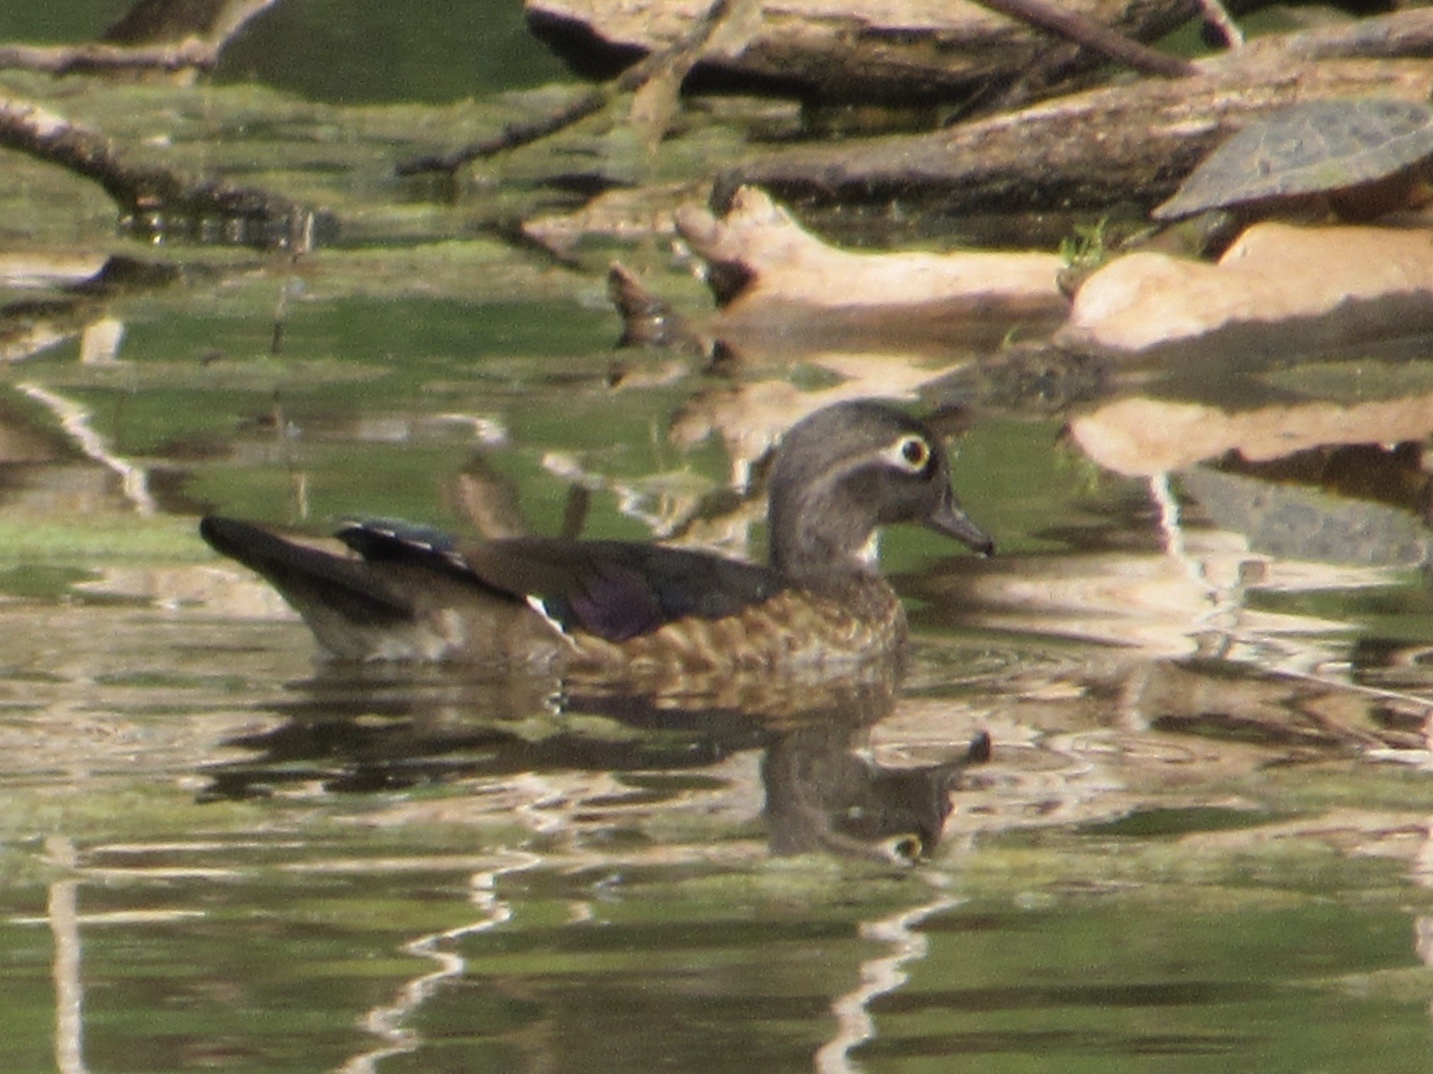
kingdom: Animalia
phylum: Chordata
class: Aves
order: Anseriformes
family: Anatidae
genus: Aix
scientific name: Aix sponsa
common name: Wood duck
